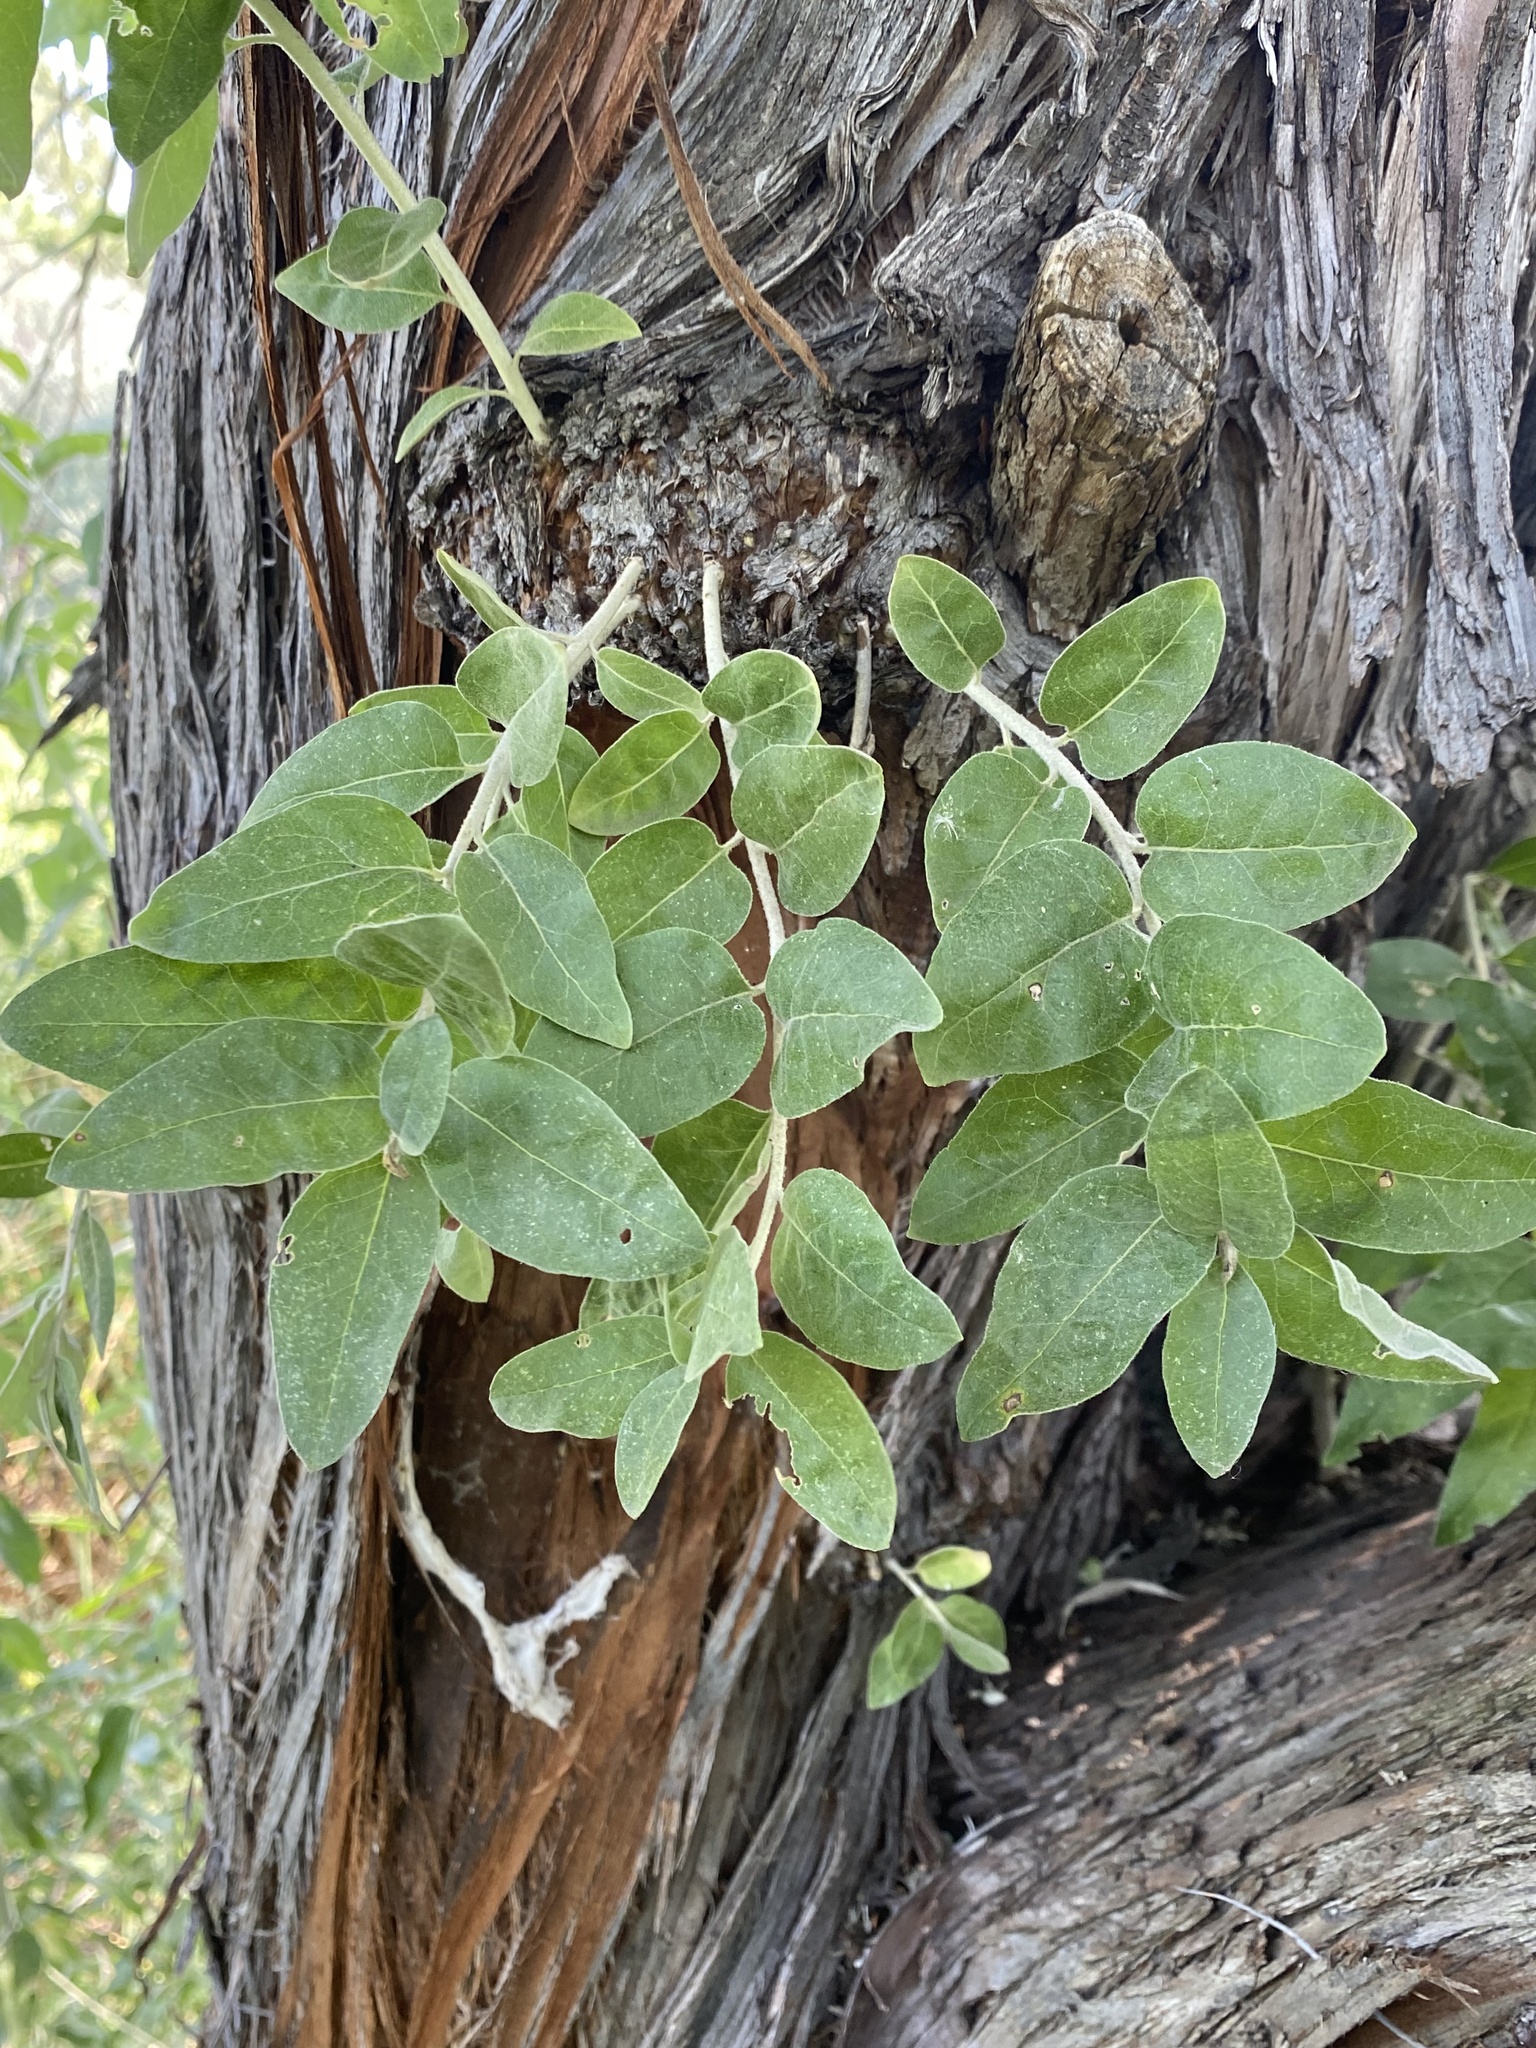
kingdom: Plantae
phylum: Tracheophyta
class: Magnoliopsida
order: Rosales
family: Elaeagnaceae
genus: Elaeagnus
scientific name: Elaeagnus angustifolia
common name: Russian olive
